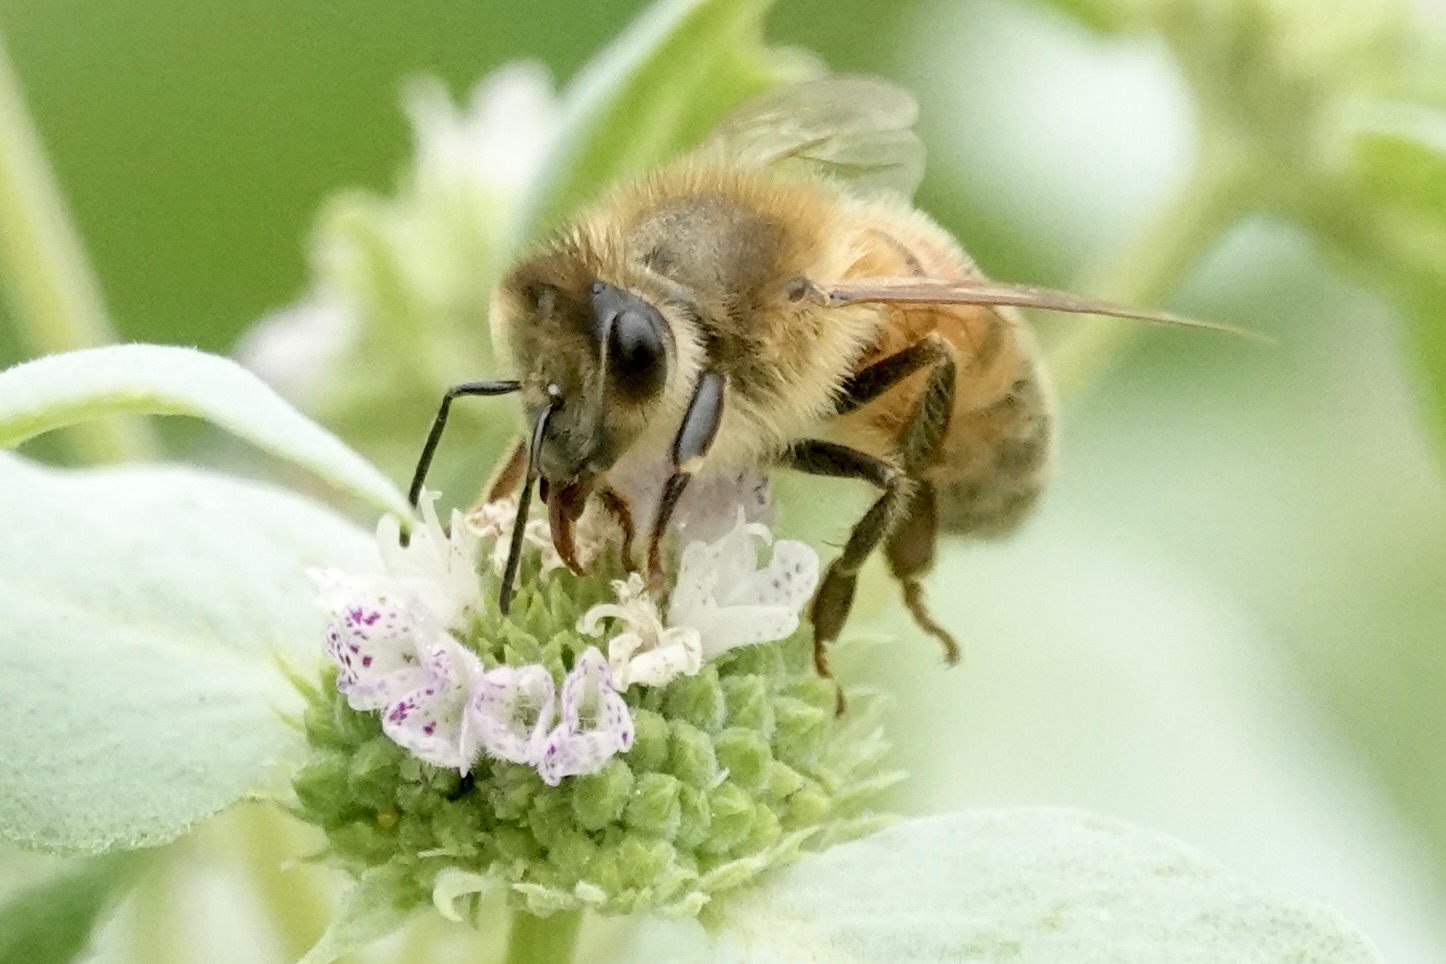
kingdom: Animalia
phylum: Arthropoda
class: Insecta
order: Hymenoptera
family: Apidae
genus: Apis
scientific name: Apis mellifera
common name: Honey bee
